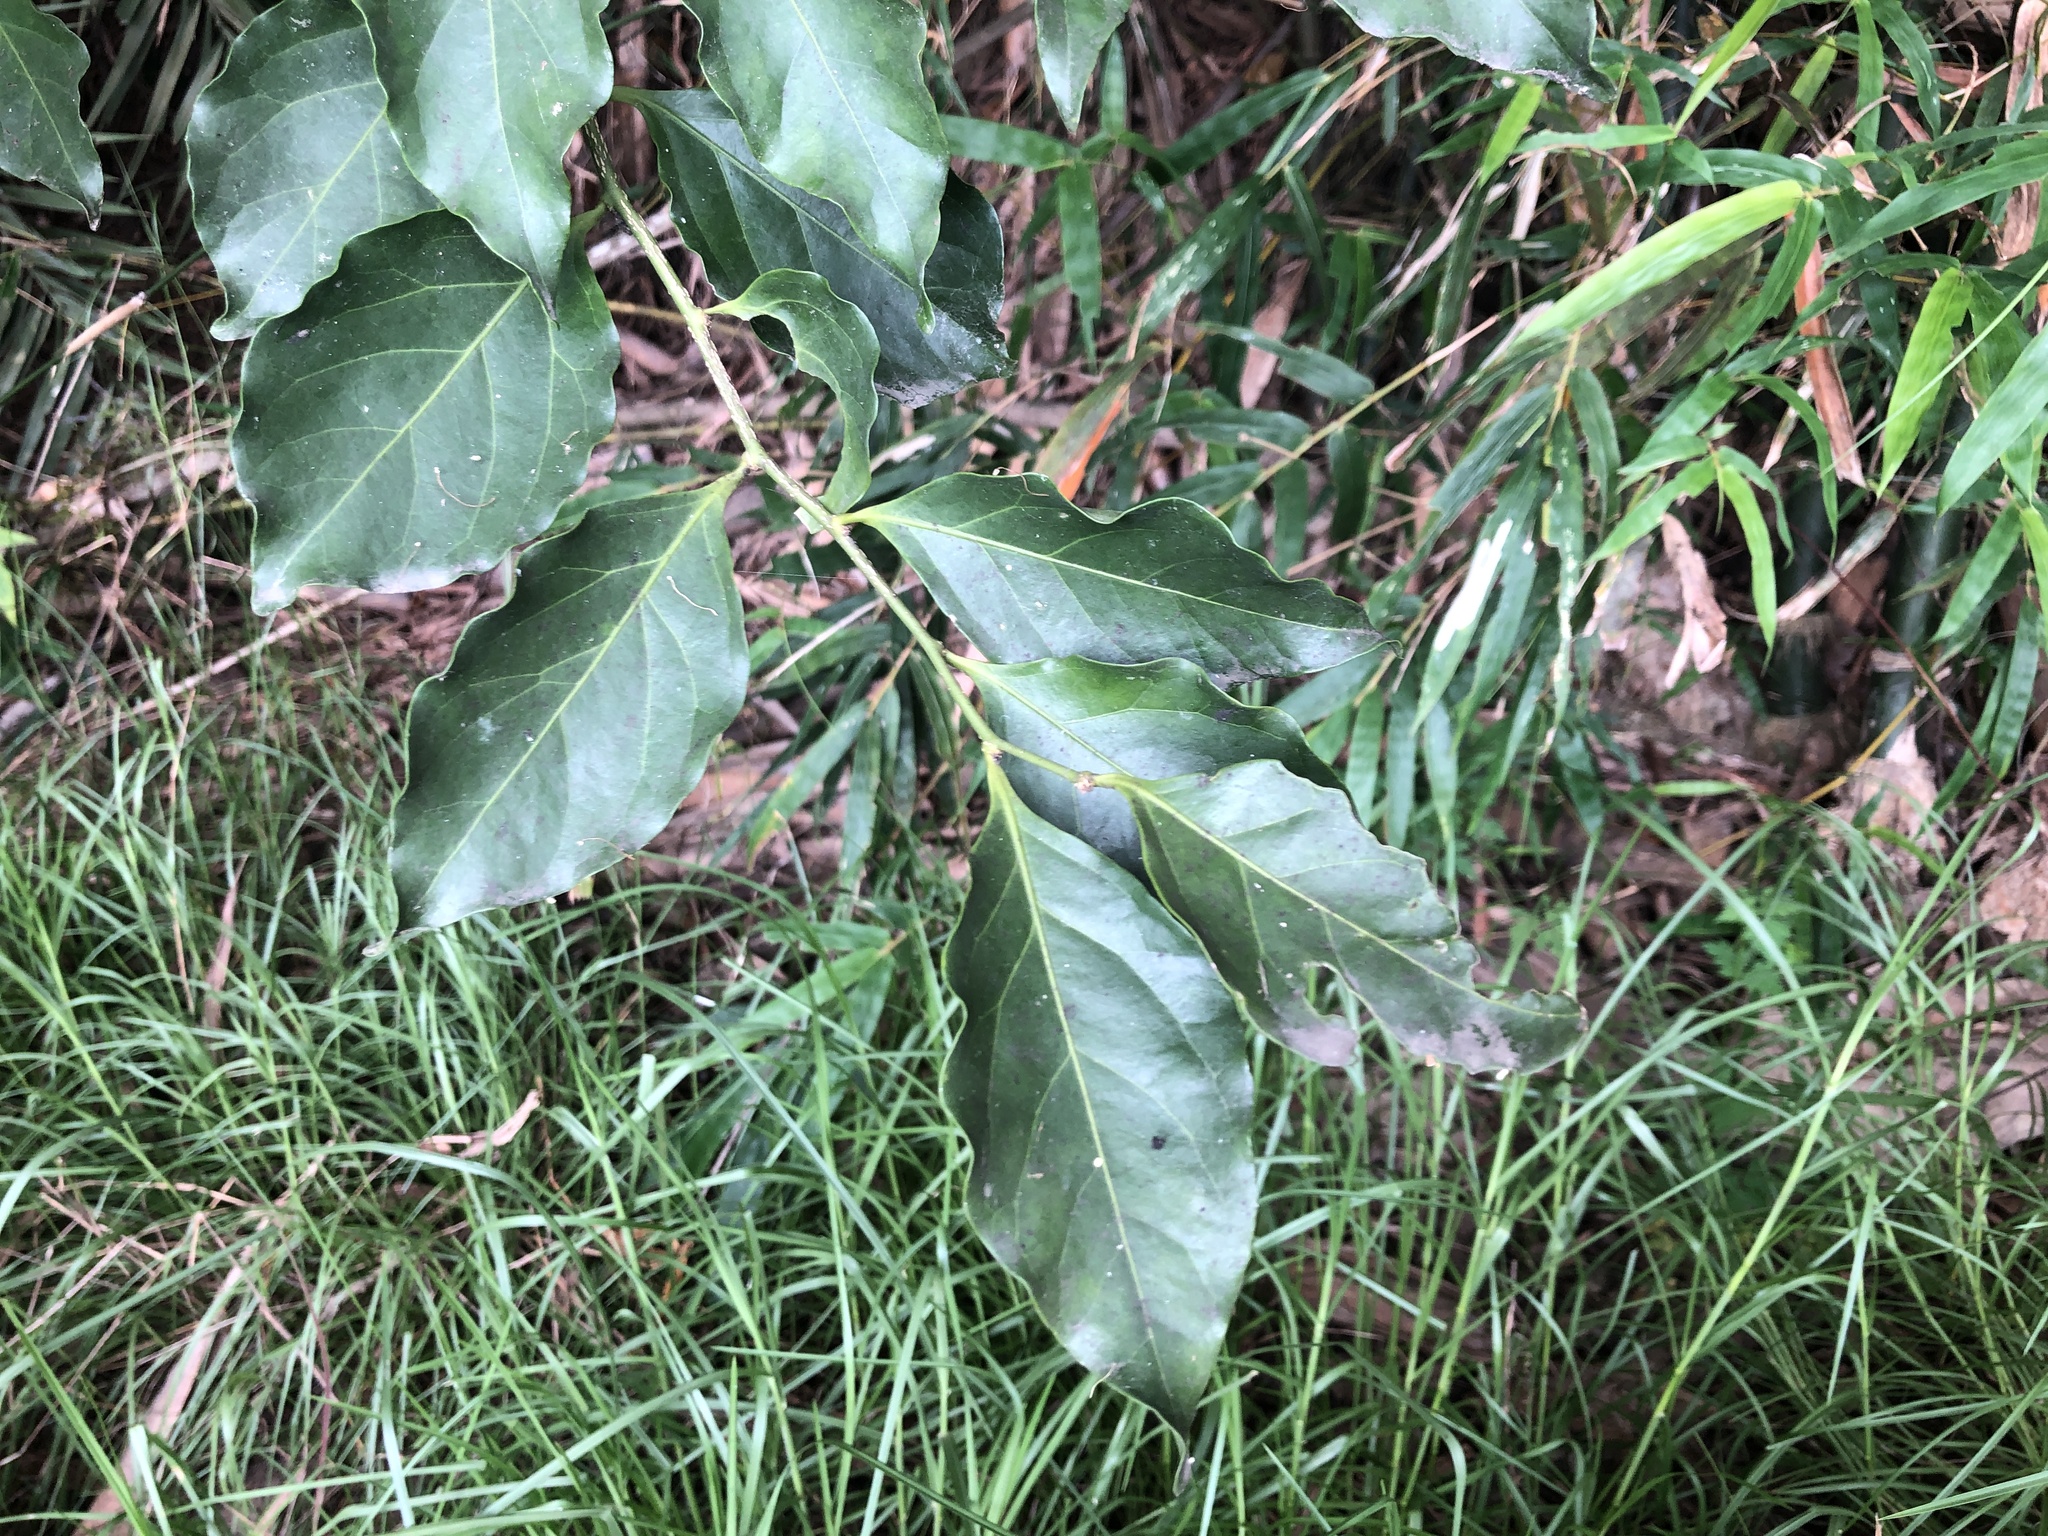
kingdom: Plantae
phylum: Tracheophyta
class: Magnoliopsida
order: Santalales
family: Opiliaceae
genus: Champereia
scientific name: Champereia manillana
